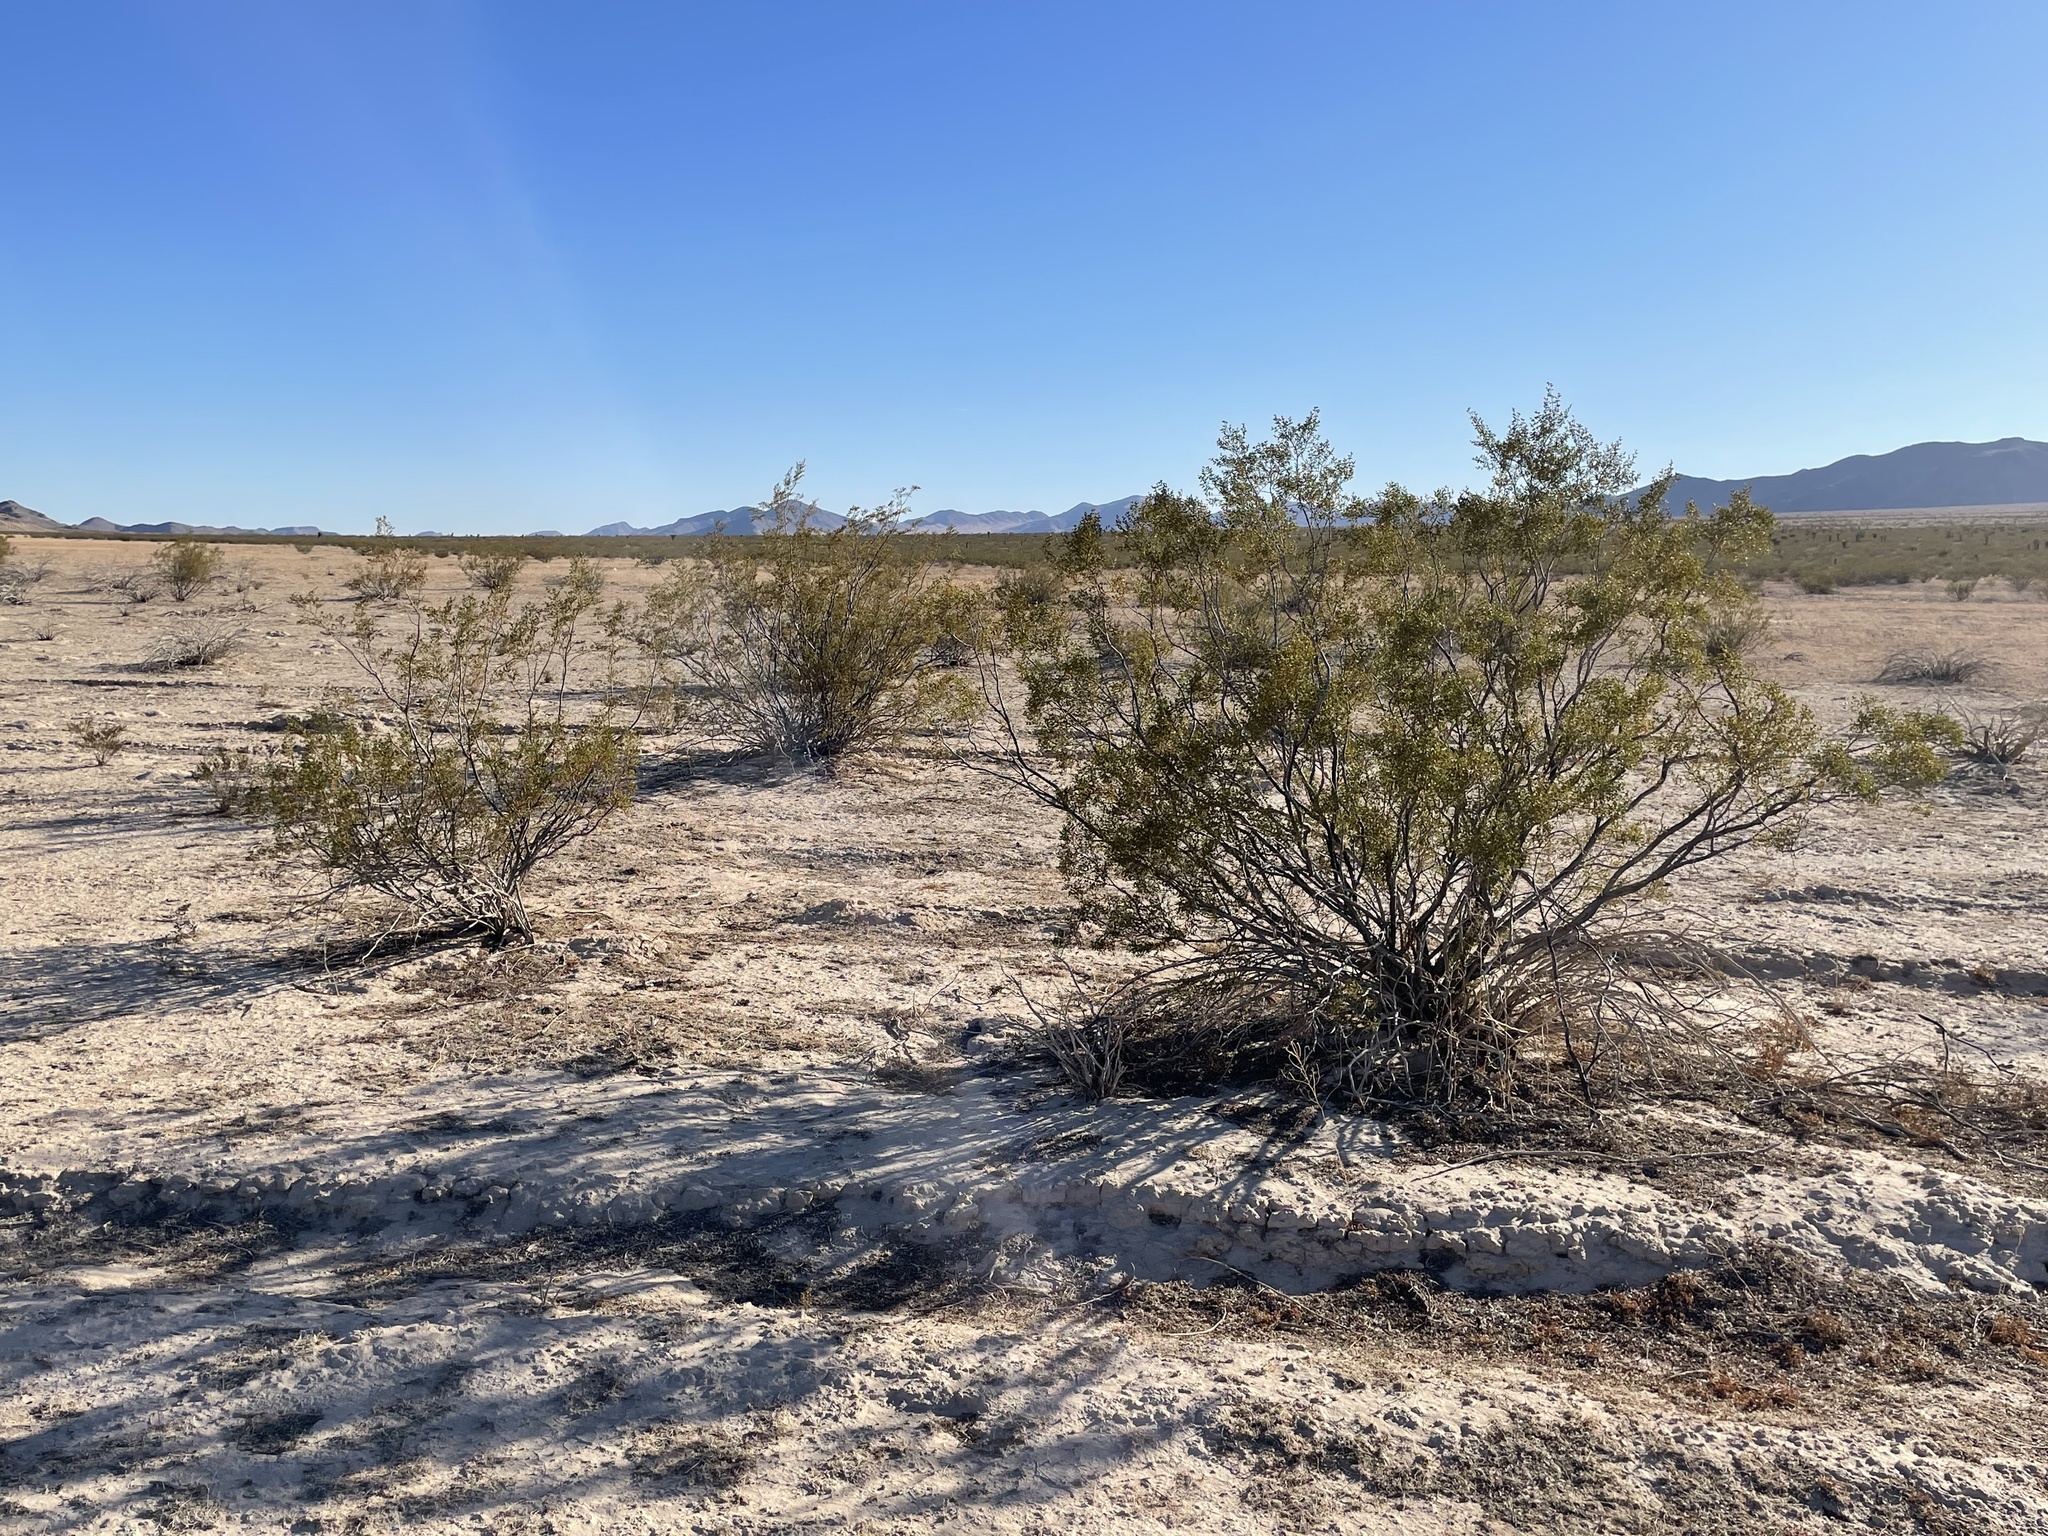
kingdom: Plantae
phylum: Tracheophyta
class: Magnoliopsida
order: Zygophyllales
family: Zygophyllaceae
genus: Larrea
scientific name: Larrea tridentata
